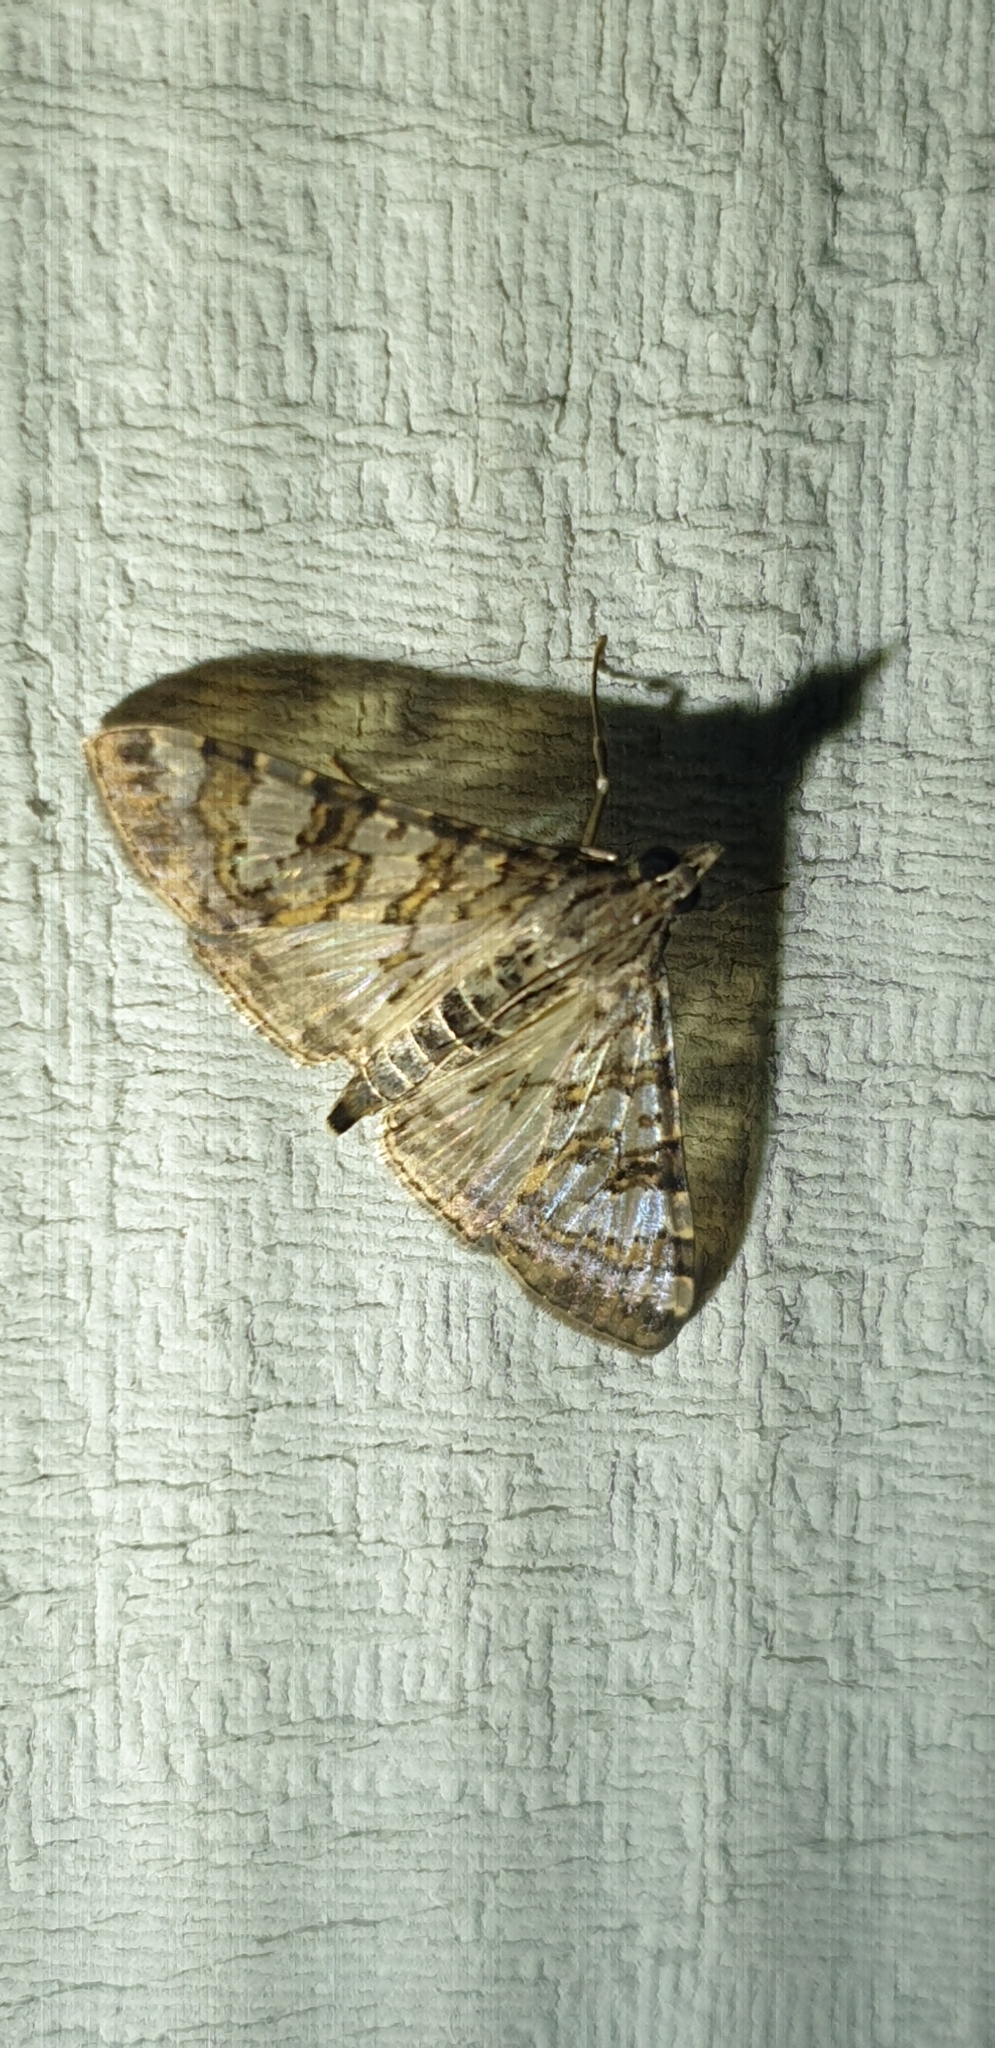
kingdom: Animalia
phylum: Arthropoda
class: Insecta
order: Lepidoptera
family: Crambidae
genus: Dysallacta
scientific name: Dysallacta negatalis
